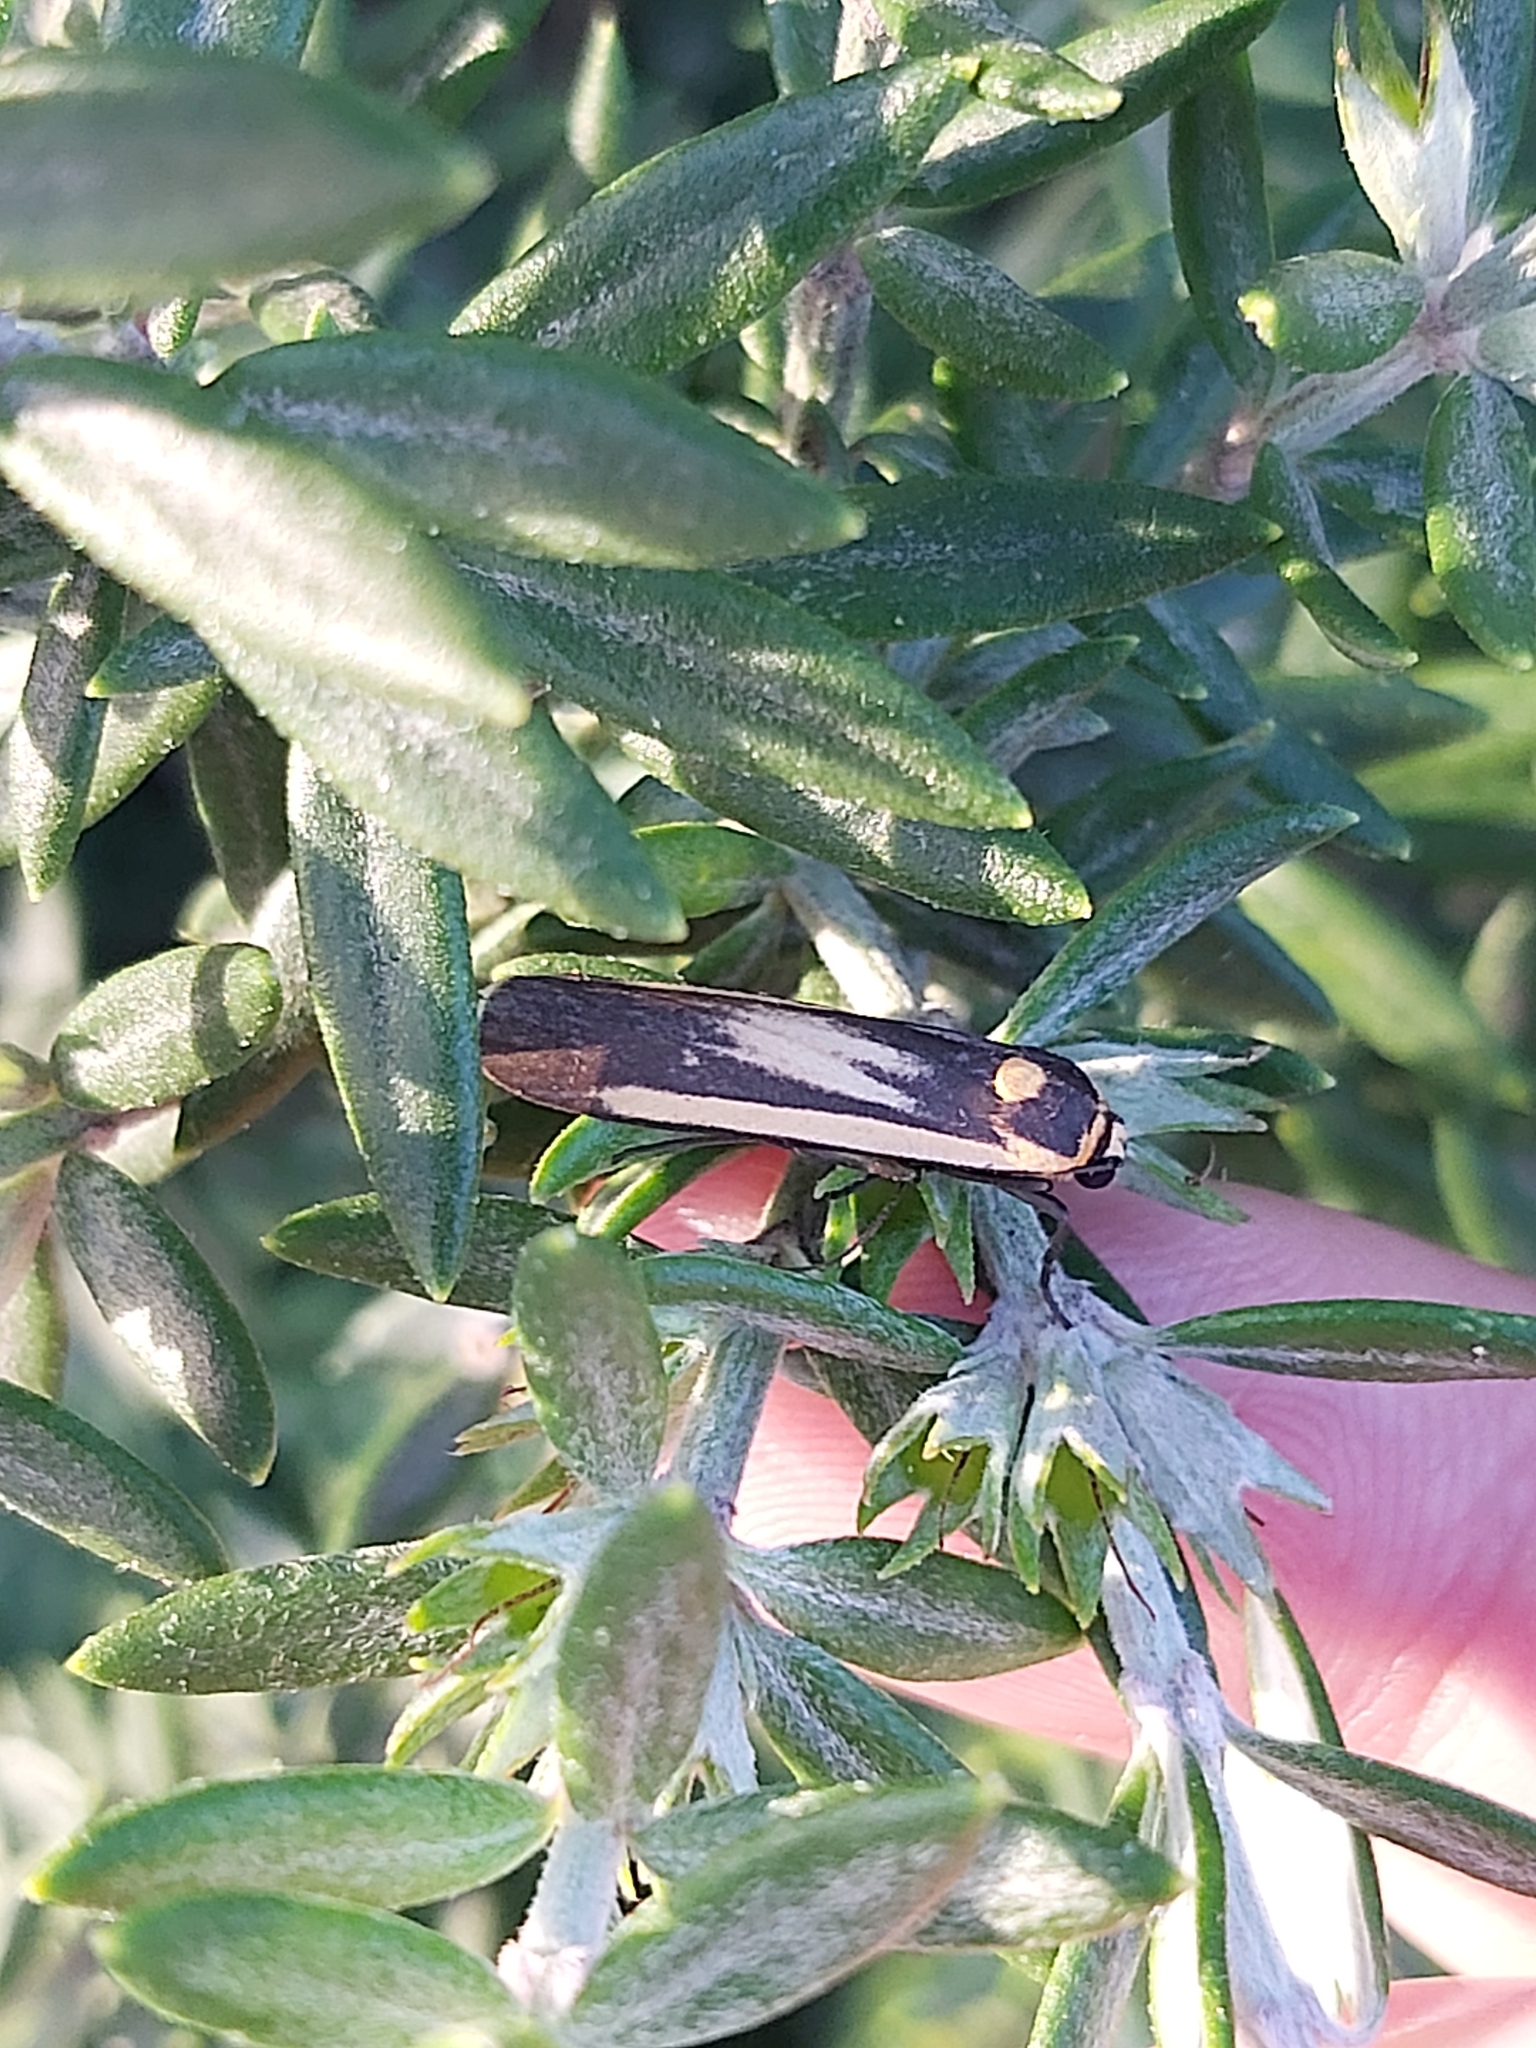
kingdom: Animalia
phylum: Arthropoda
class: Insecta
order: Lepidoptera
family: Erebidae
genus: Brunia
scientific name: Brunia replana
